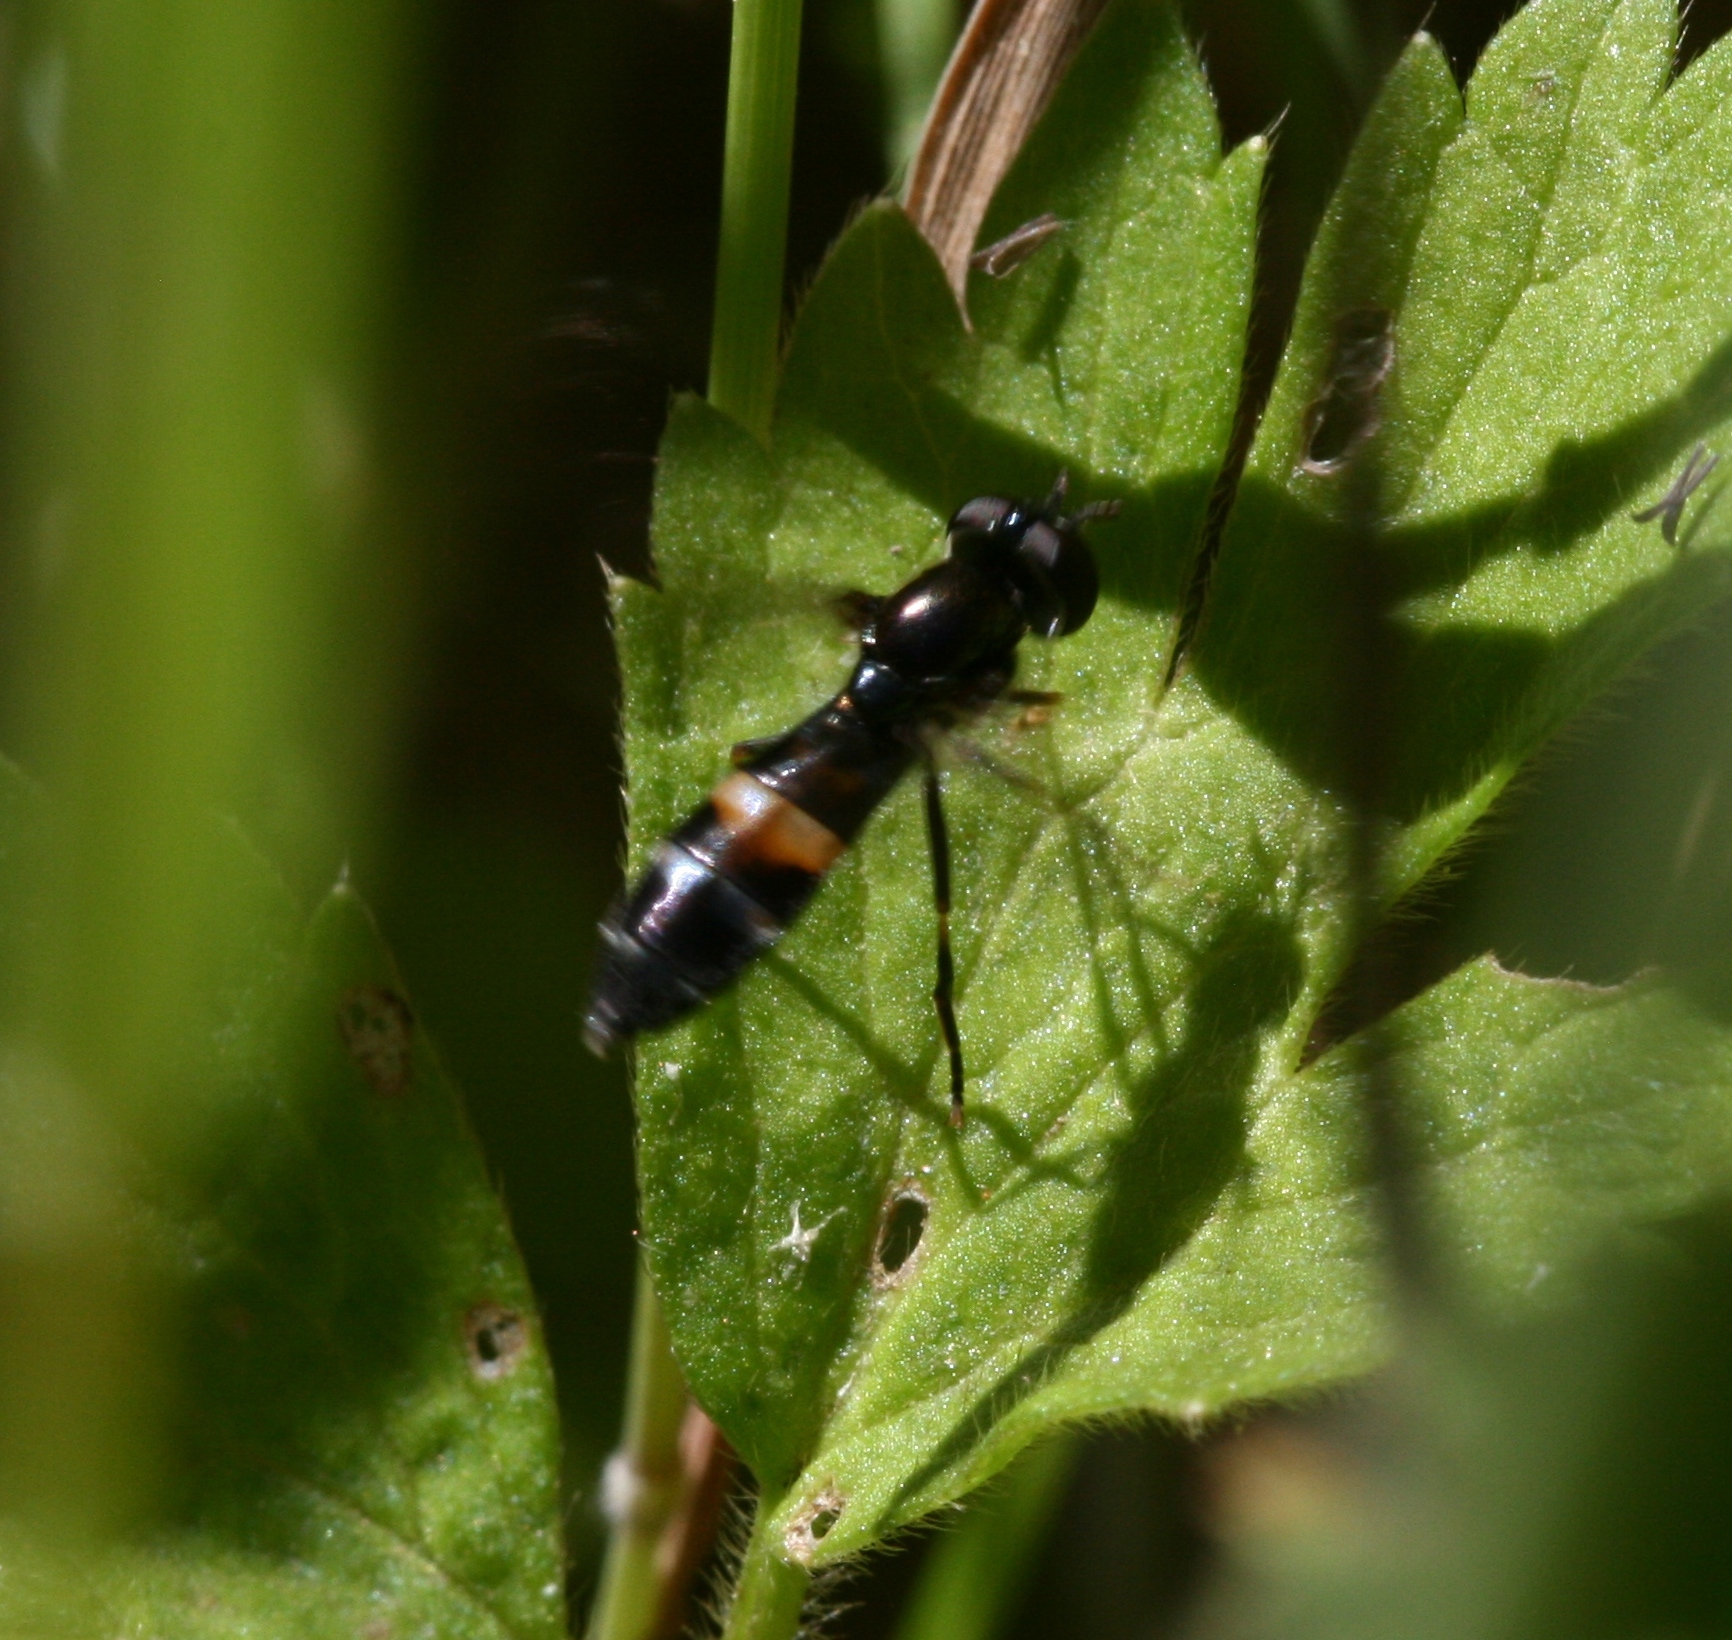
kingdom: Animalia
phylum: Arthropoda
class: Insecta
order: Diptera
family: Syrphidae
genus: Pyrophaena
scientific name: Pyrophaena rosarum
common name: Fourspot sedgesitter
